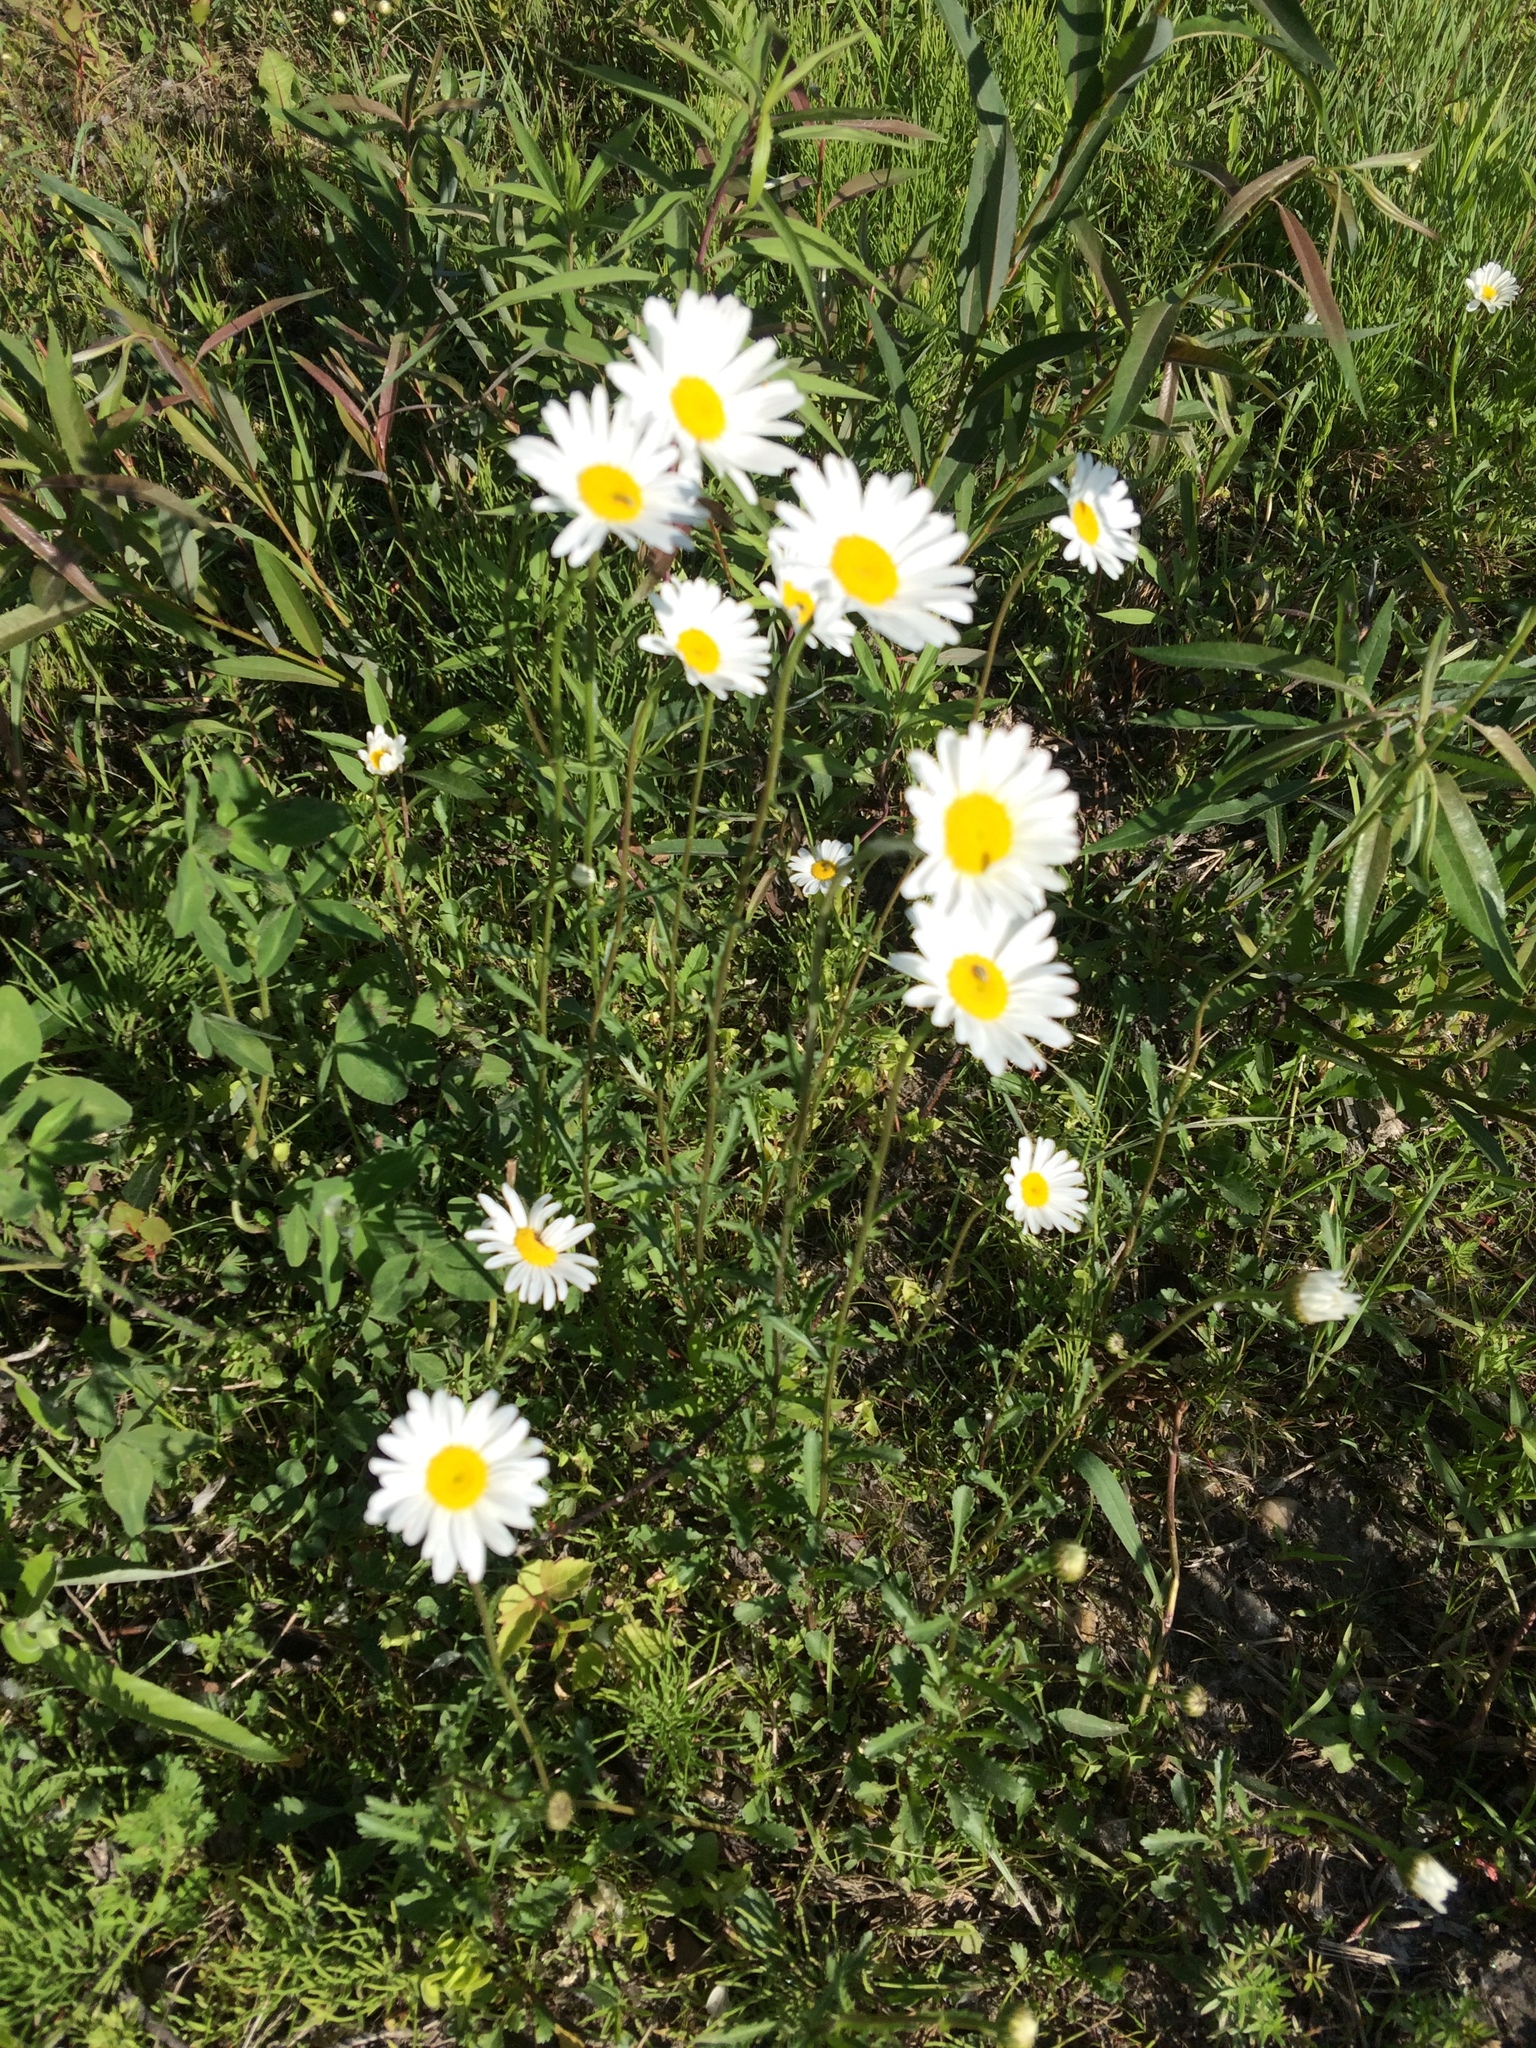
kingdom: Plantae
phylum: Tracheophyta
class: Magnoliopsida
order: Asterales
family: Asteraceae
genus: Leucanthemum
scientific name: Leucanthemum vulgare
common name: Oxeye daisy
